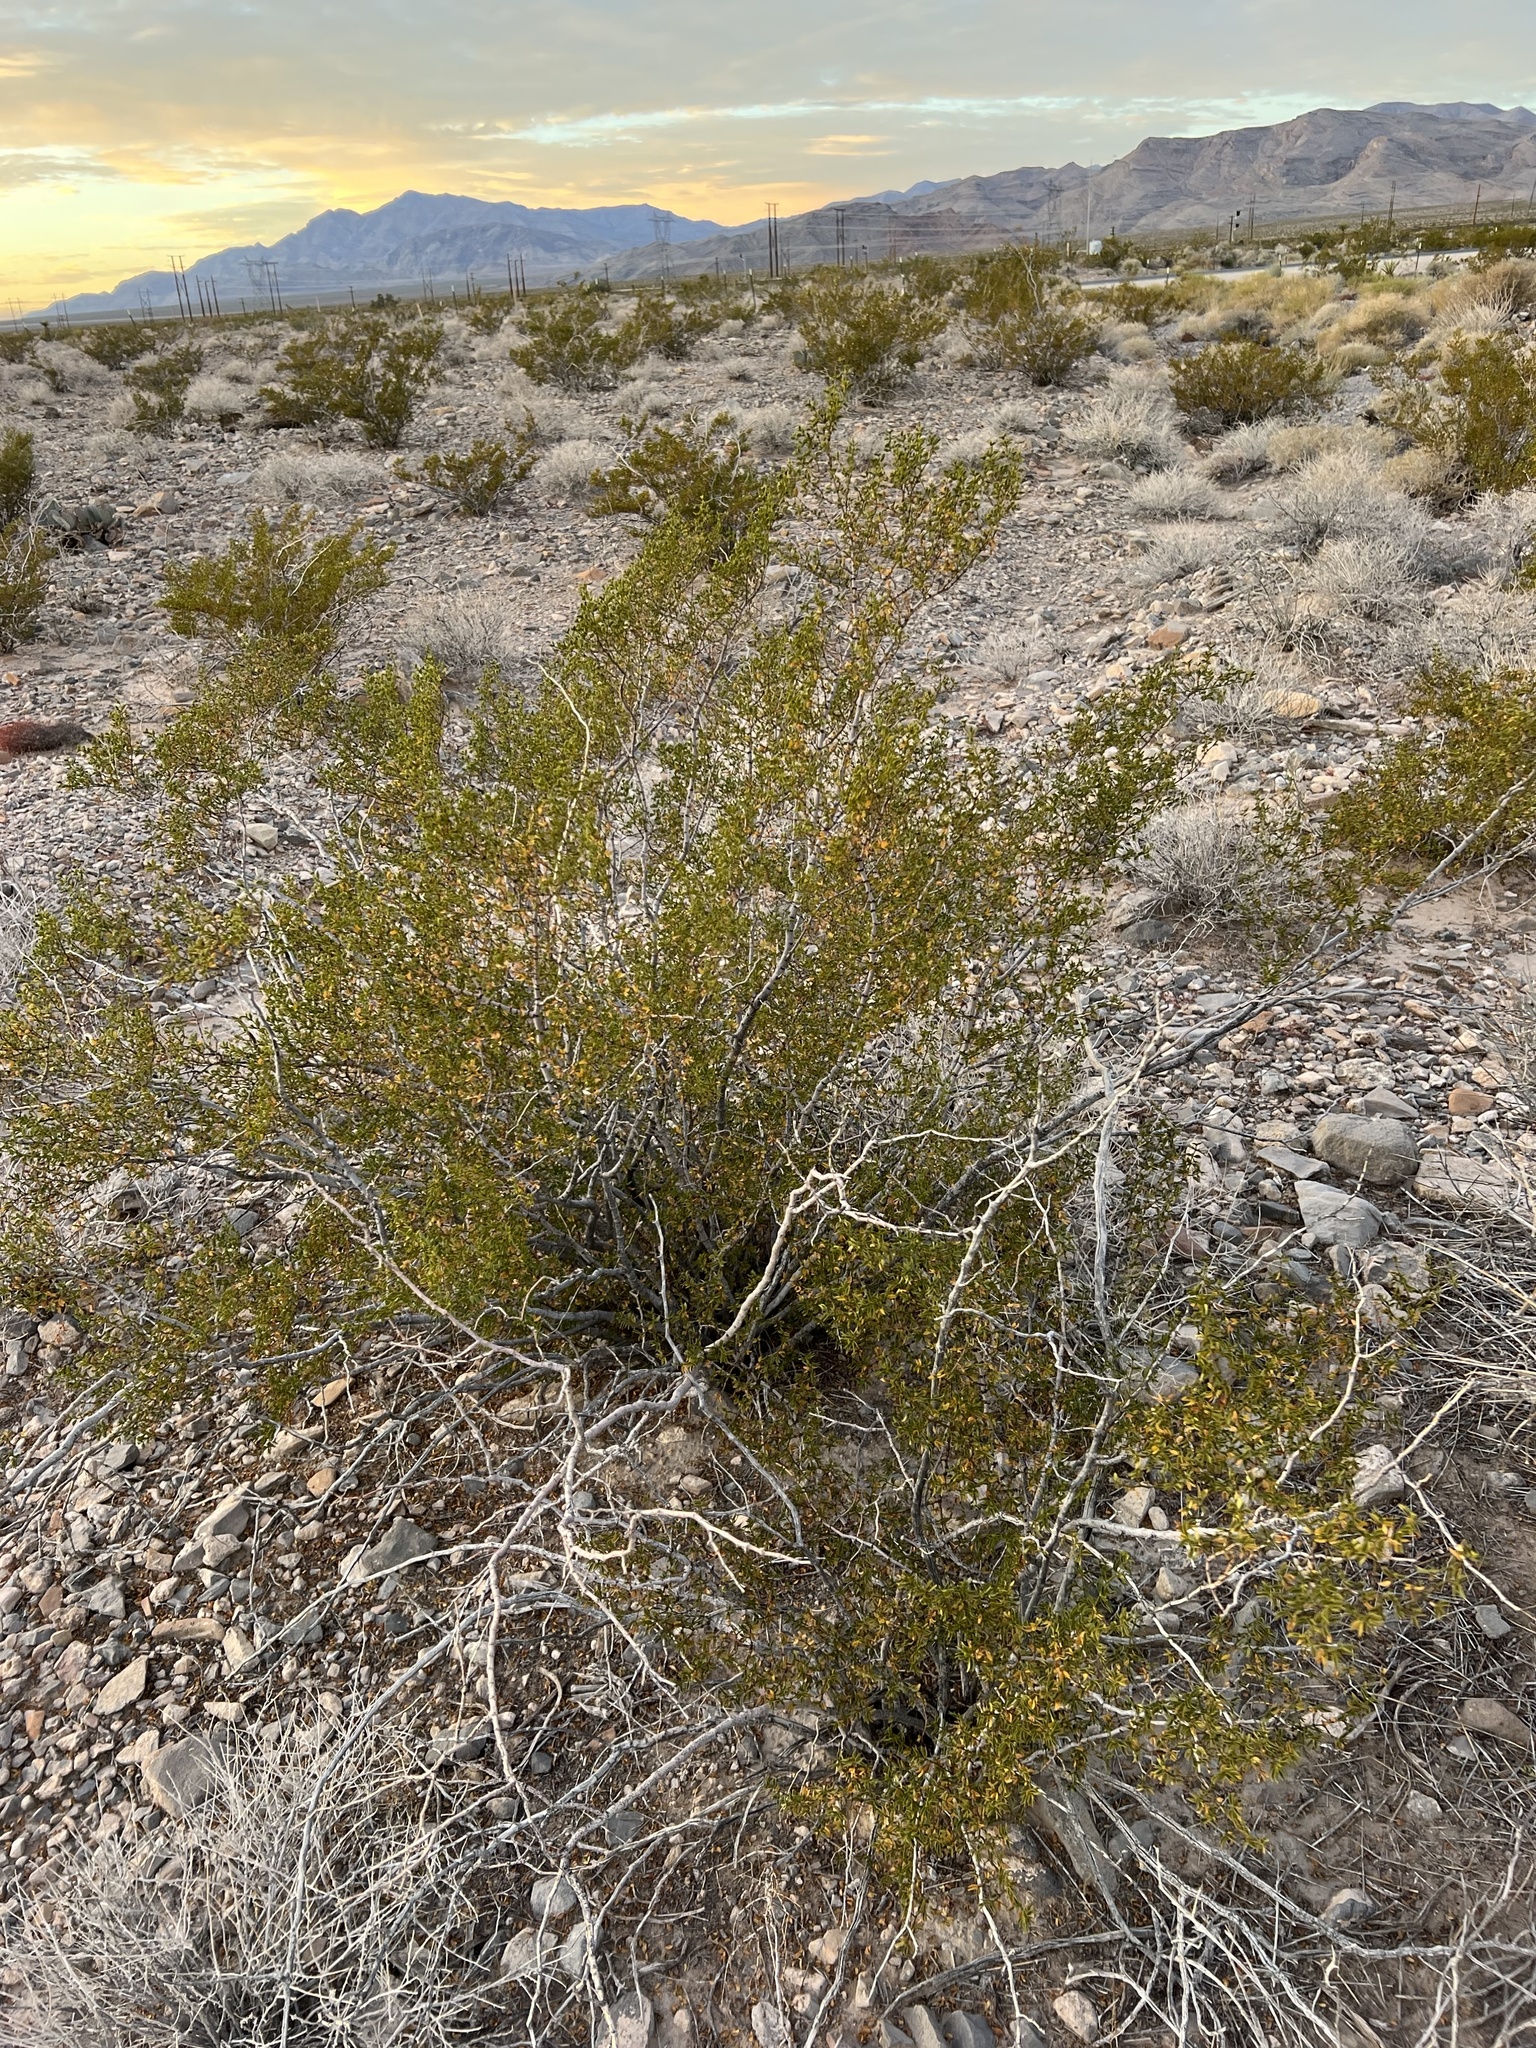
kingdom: Plantae
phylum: Tracheophyta
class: Magnoliopsida
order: Zygophyllales
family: Zygophyllaceae
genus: Larrea
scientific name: Larrea tridentata
